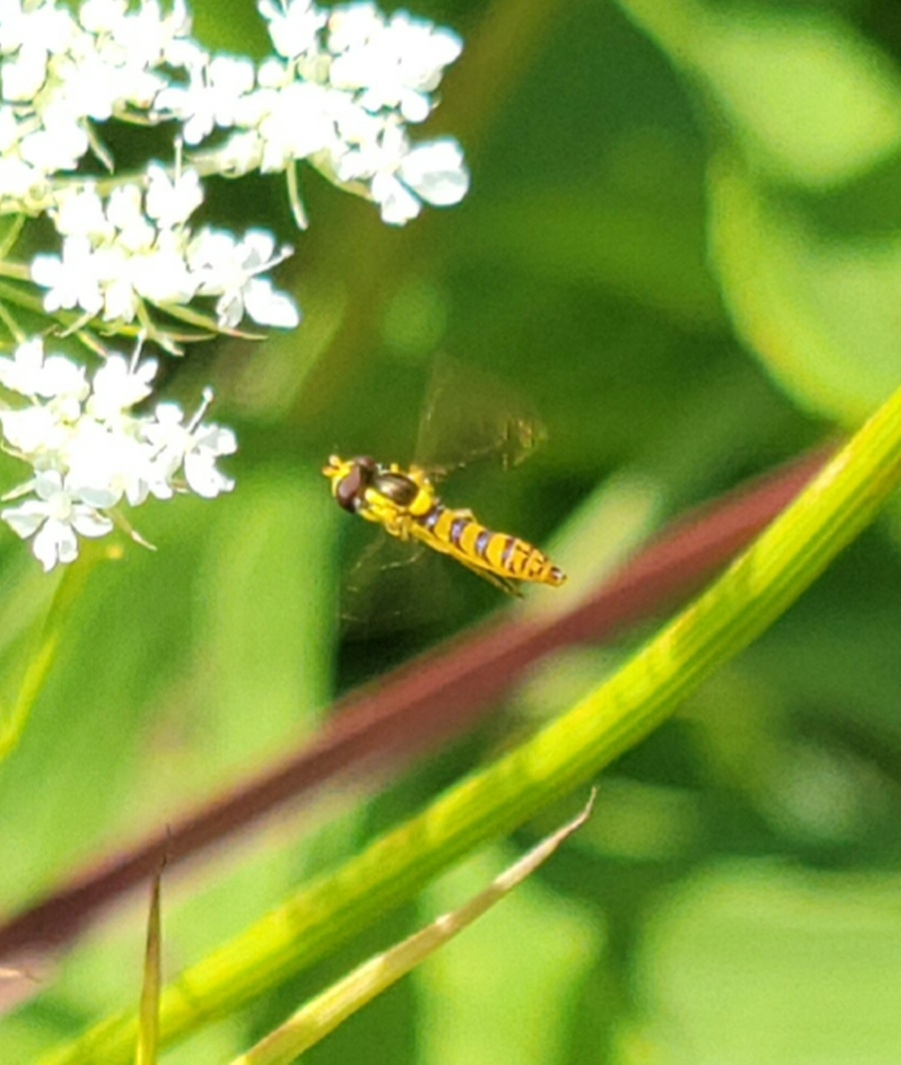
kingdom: Animalia
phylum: Arthropoda
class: Insecta
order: Diptera
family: Syrphidae
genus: Sphaerophoria
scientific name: Sphaerophoria
